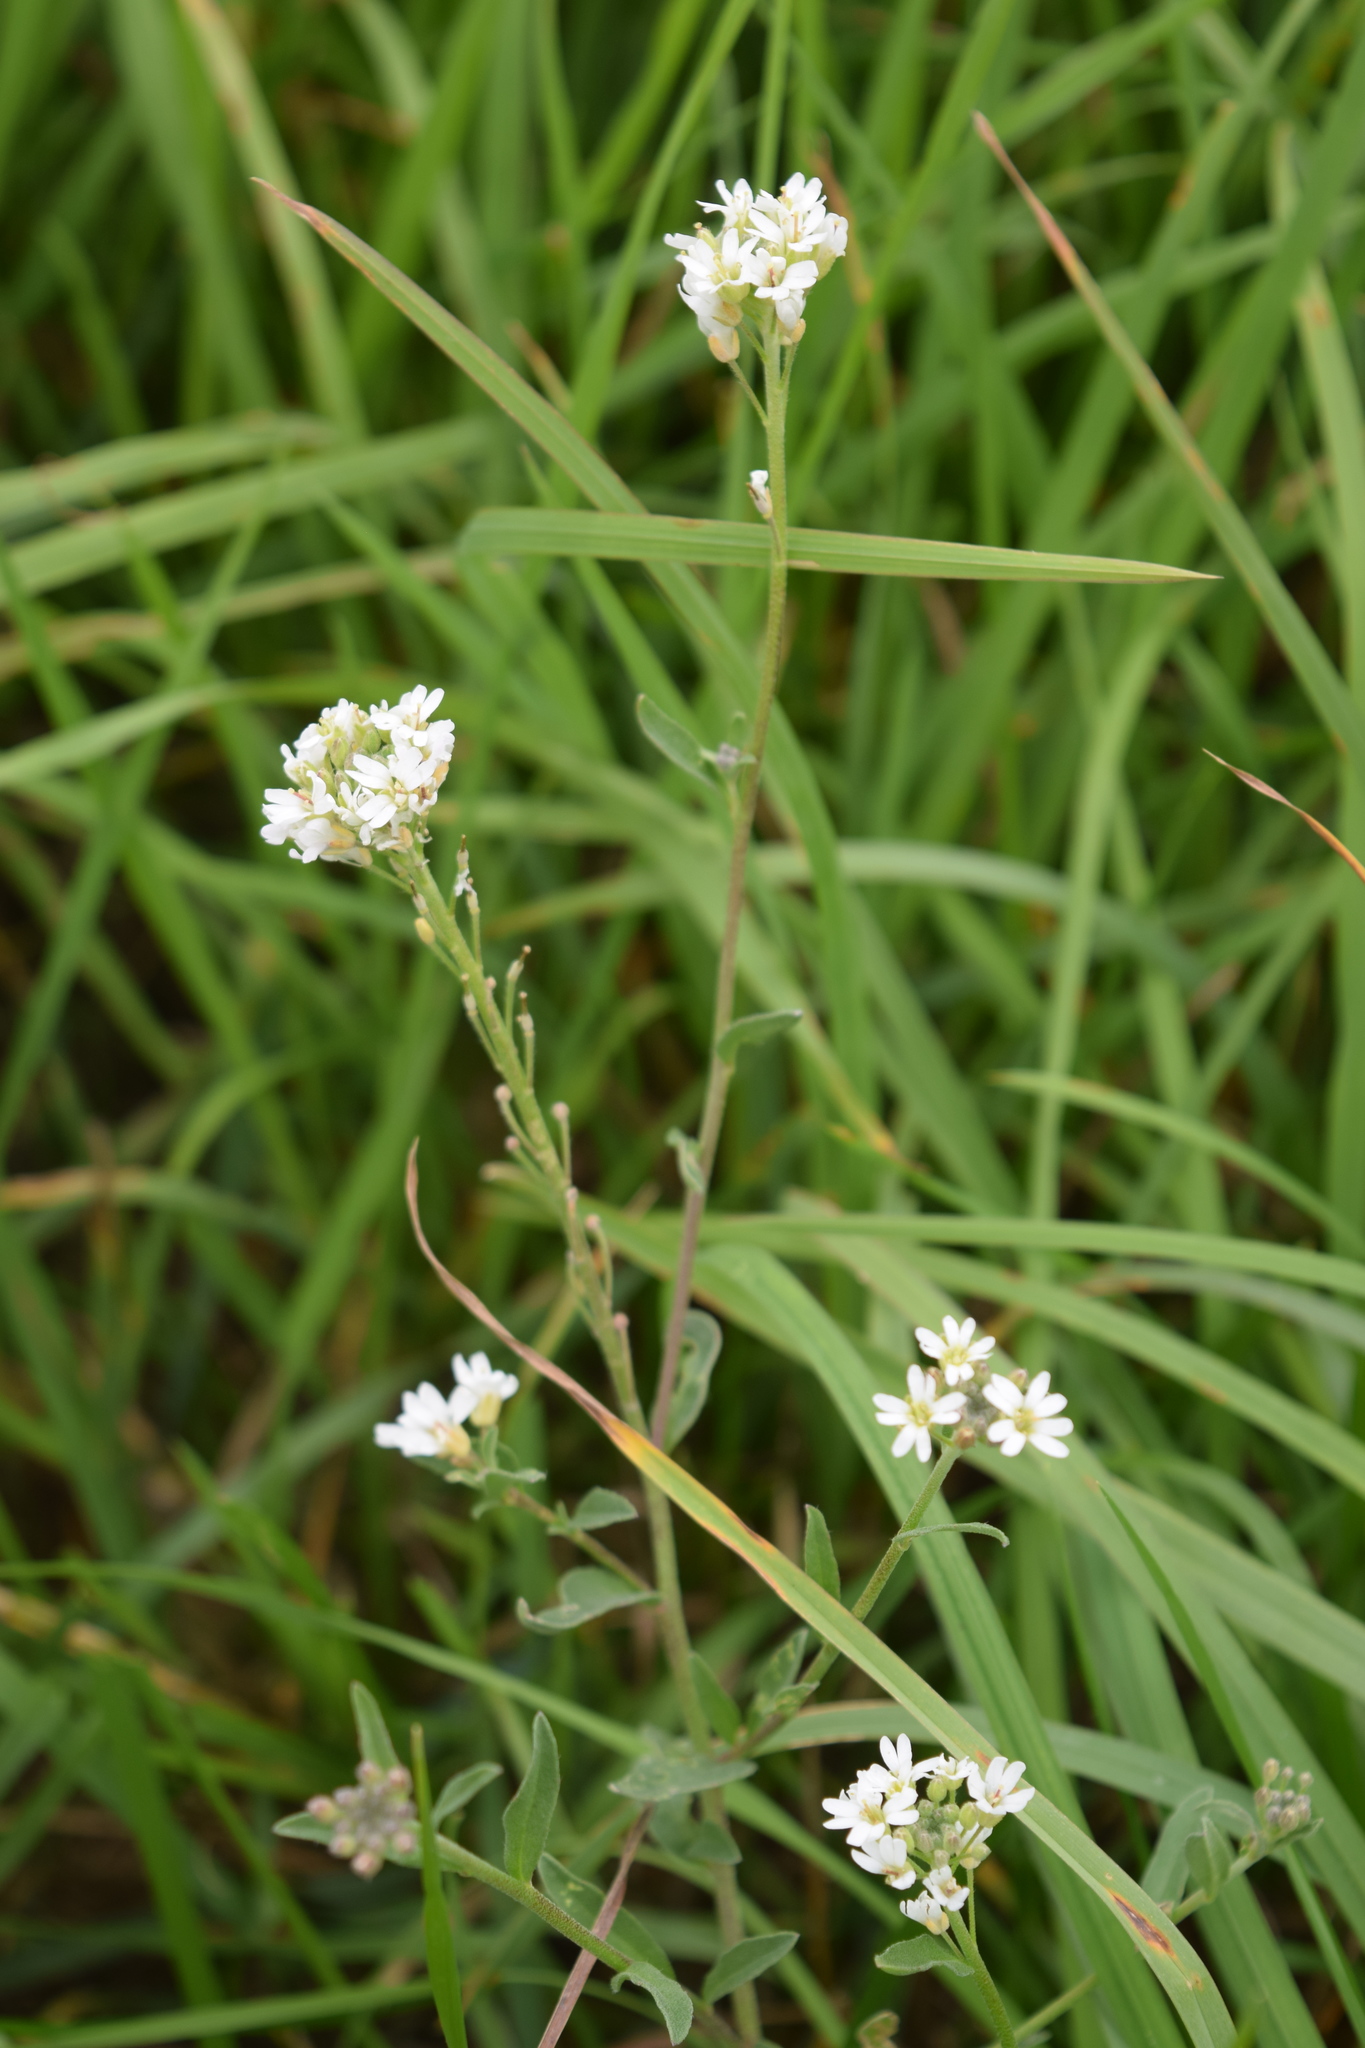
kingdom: Plantae
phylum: Tracheophyta
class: Magnoliopsida
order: Brassicales
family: Brassicaceae
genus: Berteroa
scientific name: Berteroa incana
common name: Hoary alison
